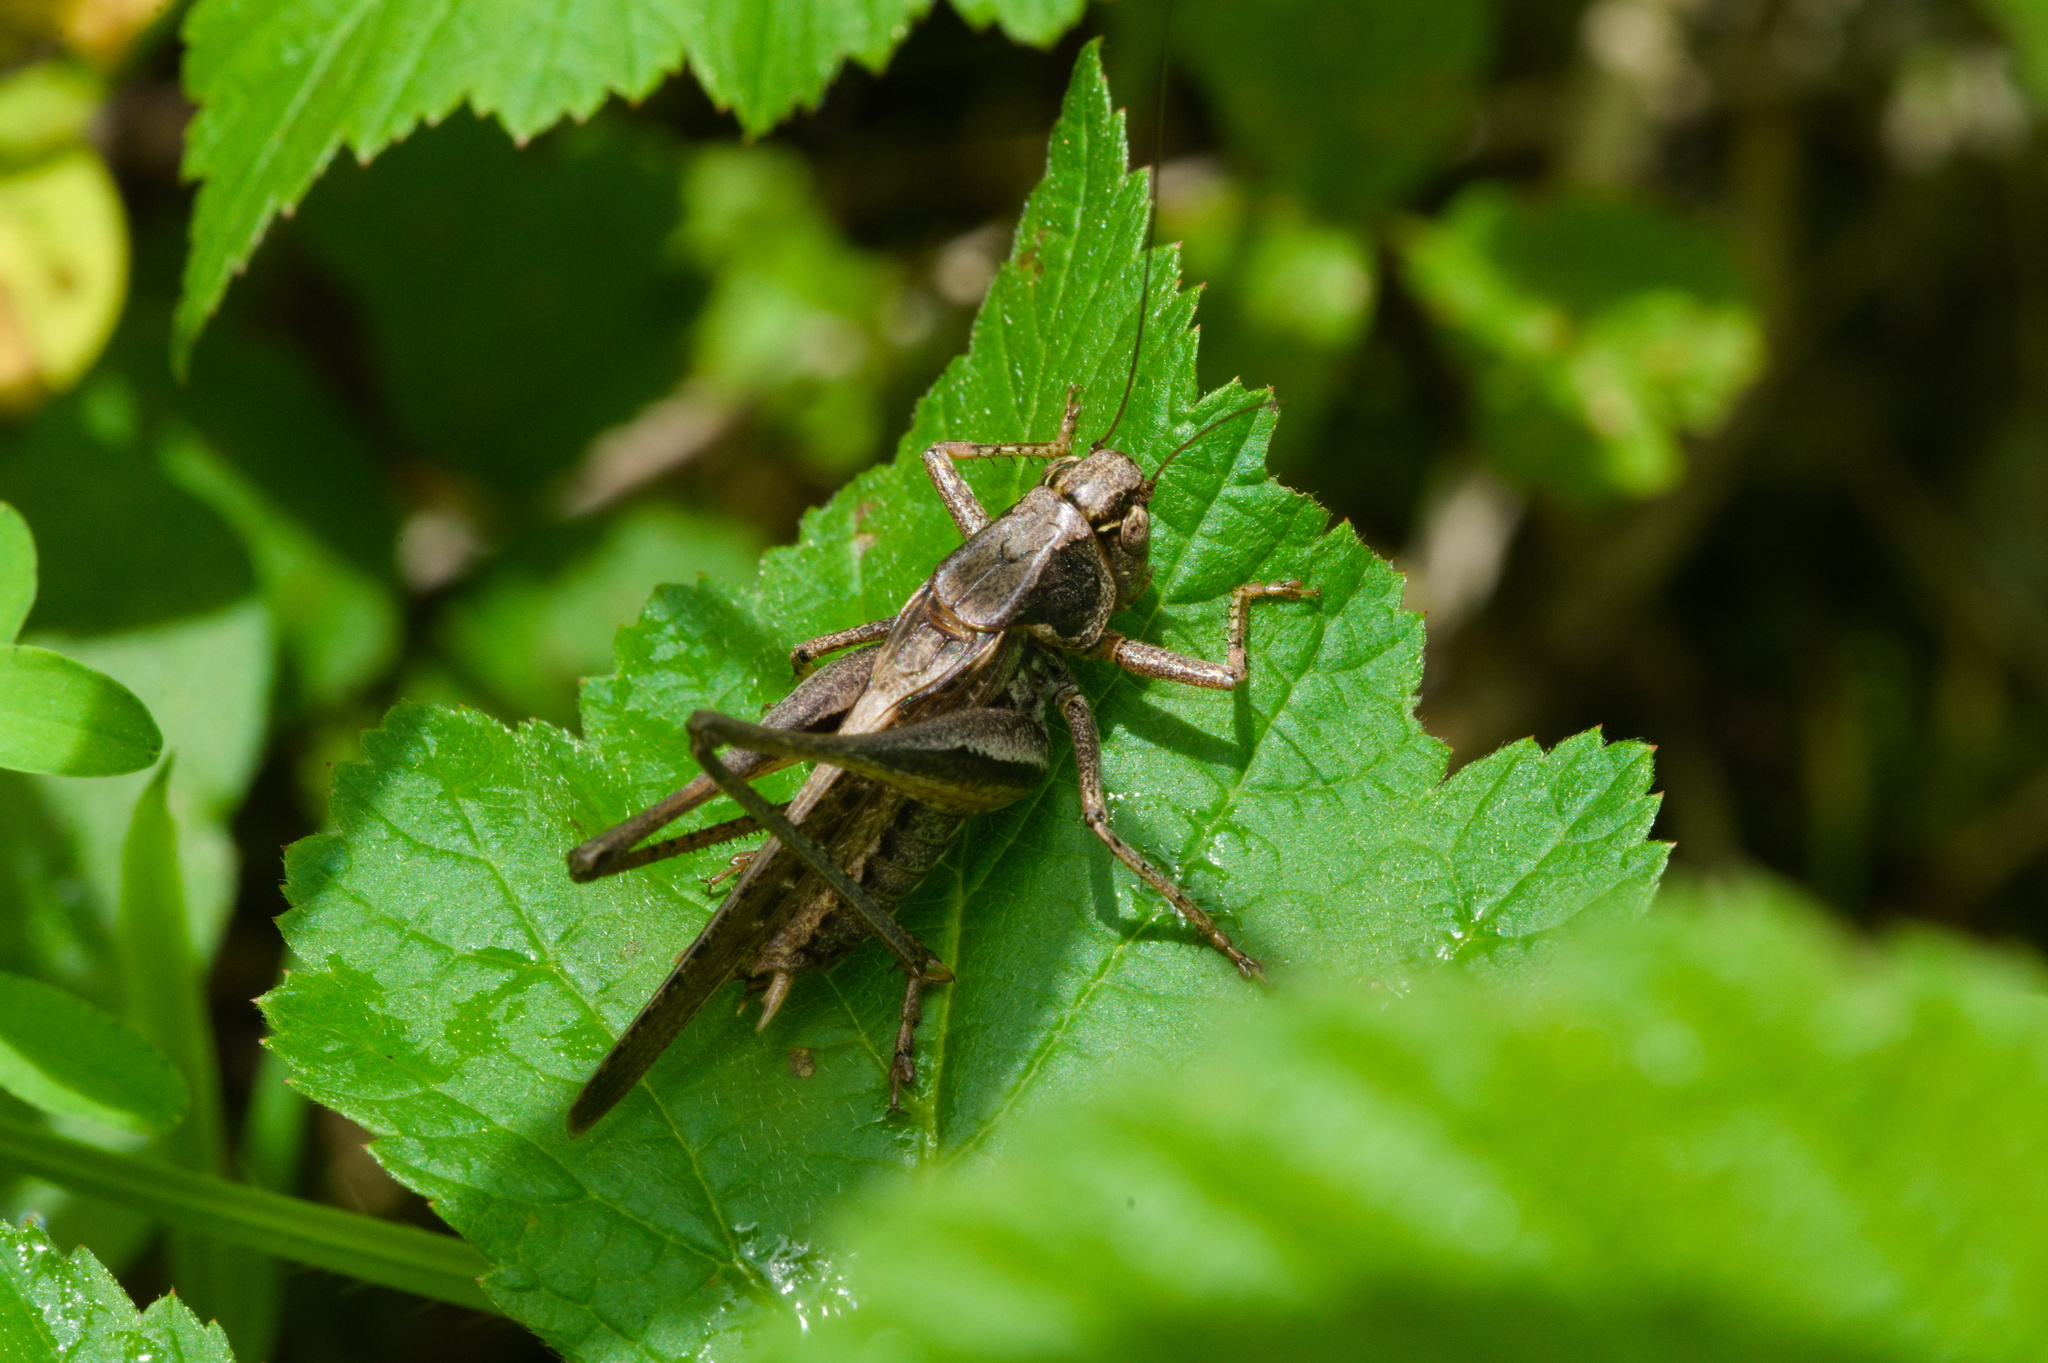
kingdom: Animalia
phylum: Arthropoda
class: Insecta
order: Orthoptera
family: Tettigoniidae
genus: Platycleis
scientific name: Platycleis albopunctata
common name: Grey bush-cricket
